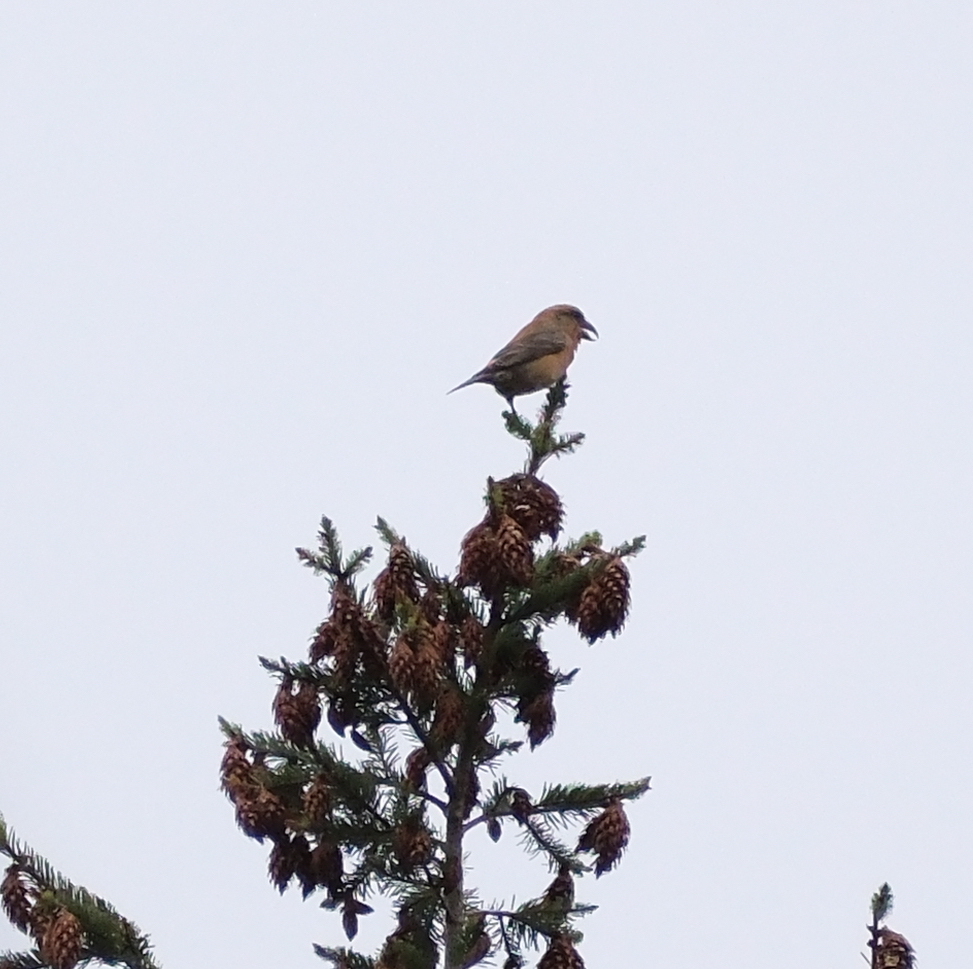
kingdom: Animalia
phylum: Chordata
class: Aves
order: Passeriformes
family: Fringillidae
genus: Loxia
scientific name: Loxia curvirostra
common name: Red crossbill
